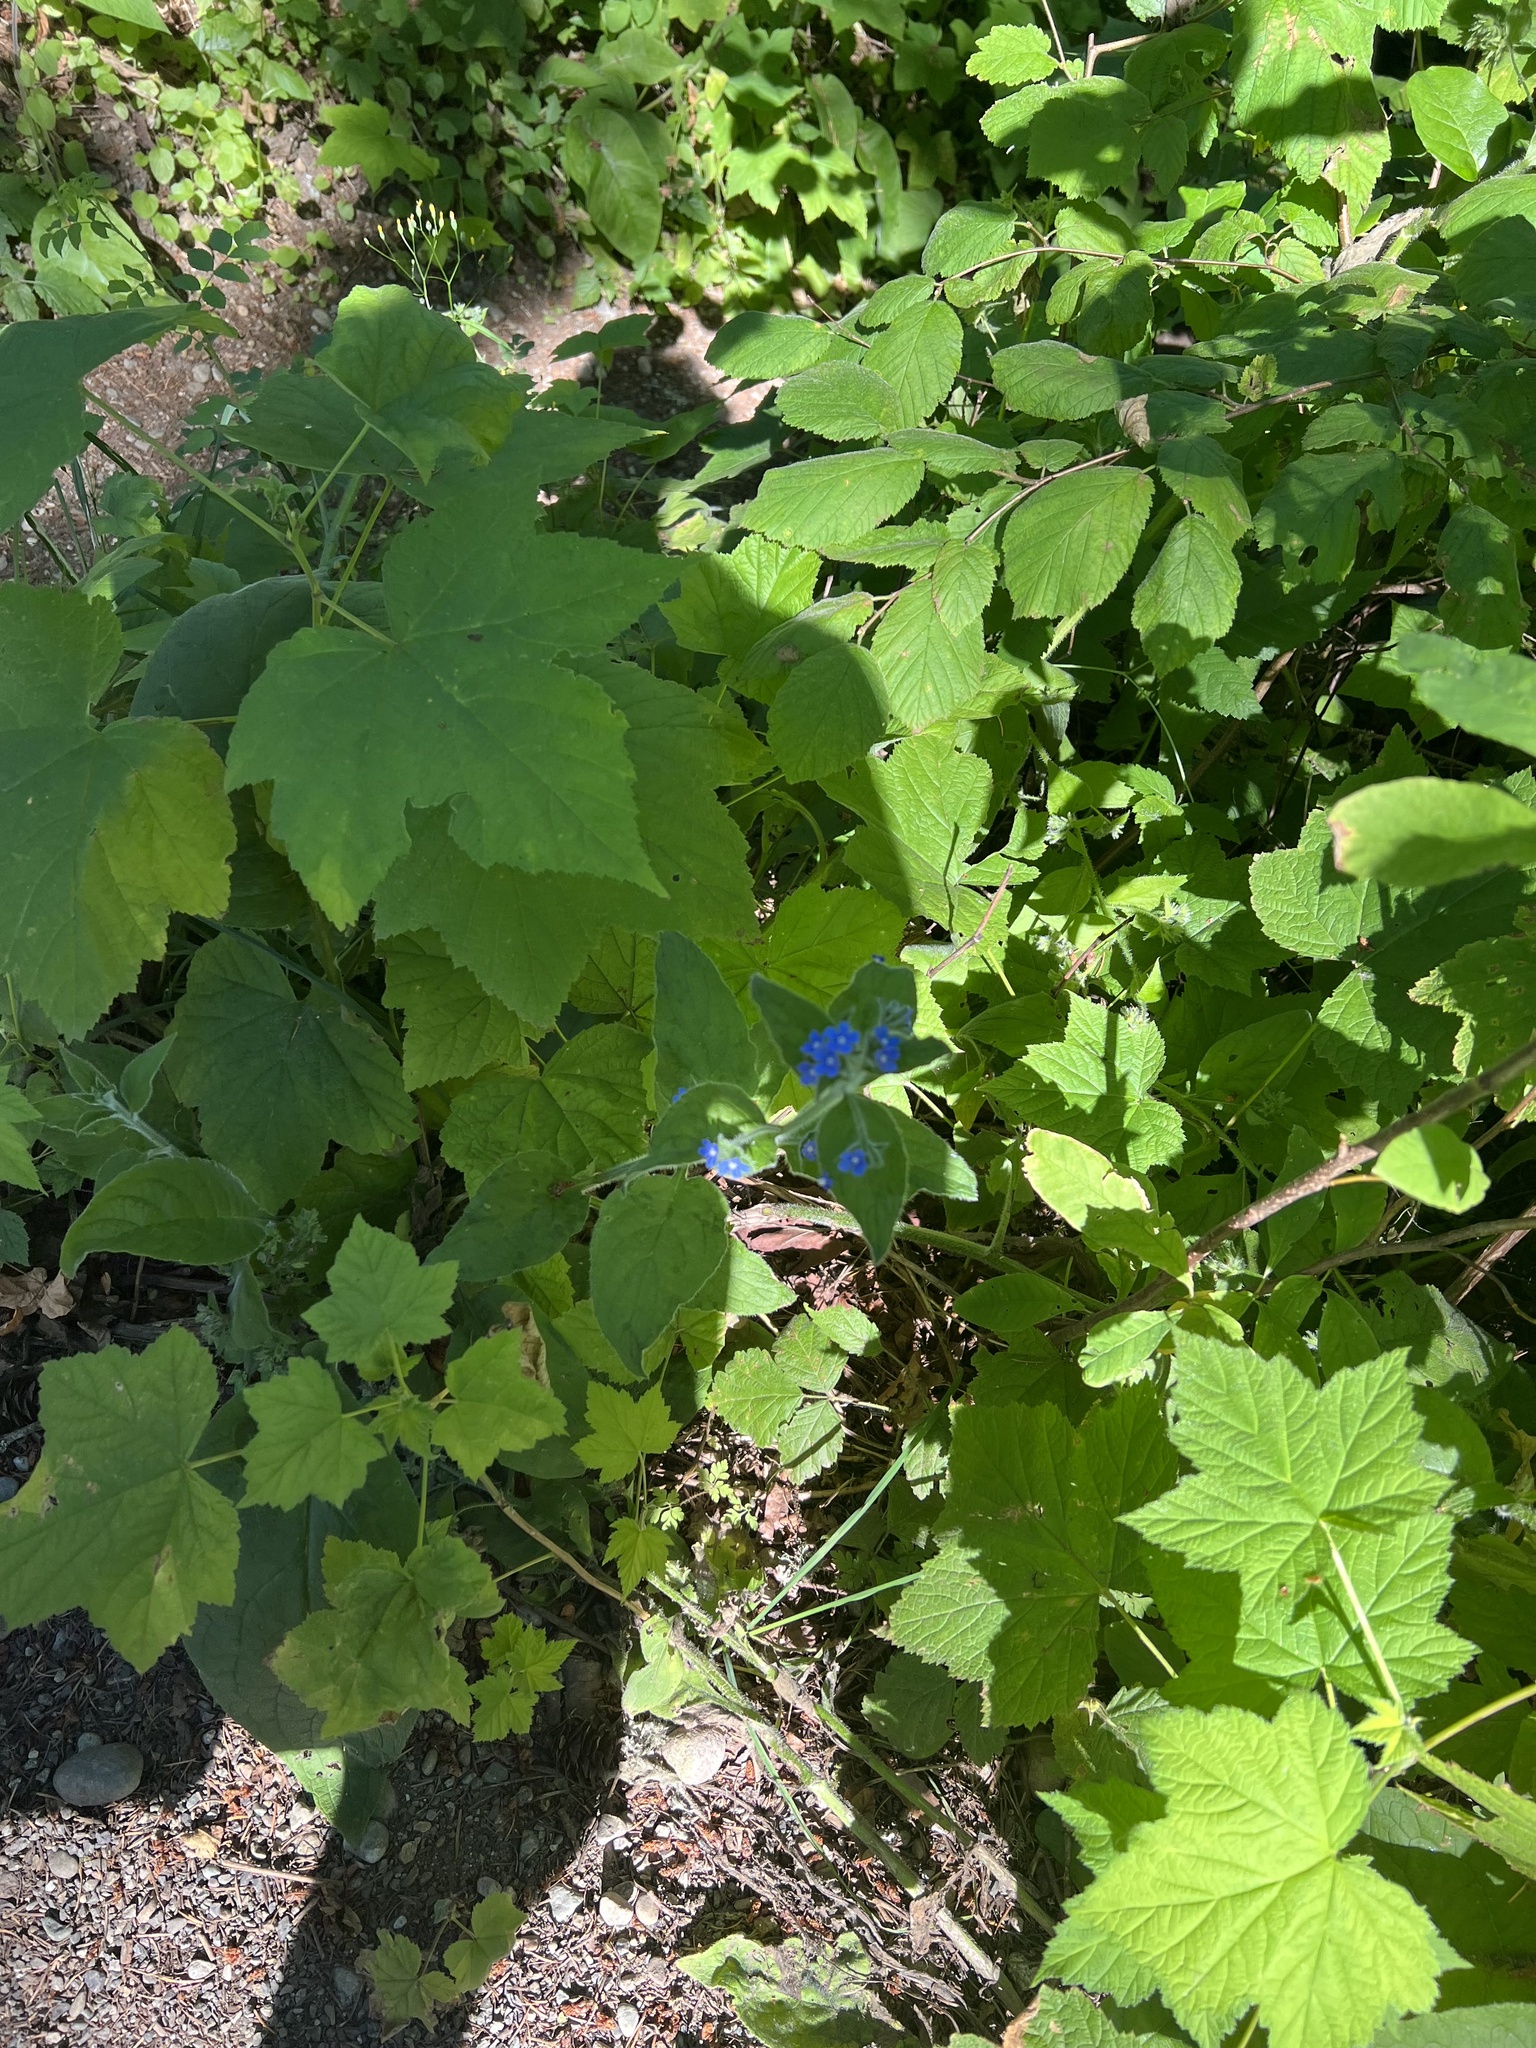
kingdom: Plantae
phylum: Tracheophyta
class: Magnoliopsida
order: Boraginales
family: Boraginaceae
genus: Pentaglottis
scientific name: Pentaglottis sempervirens
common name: Green alkanet
